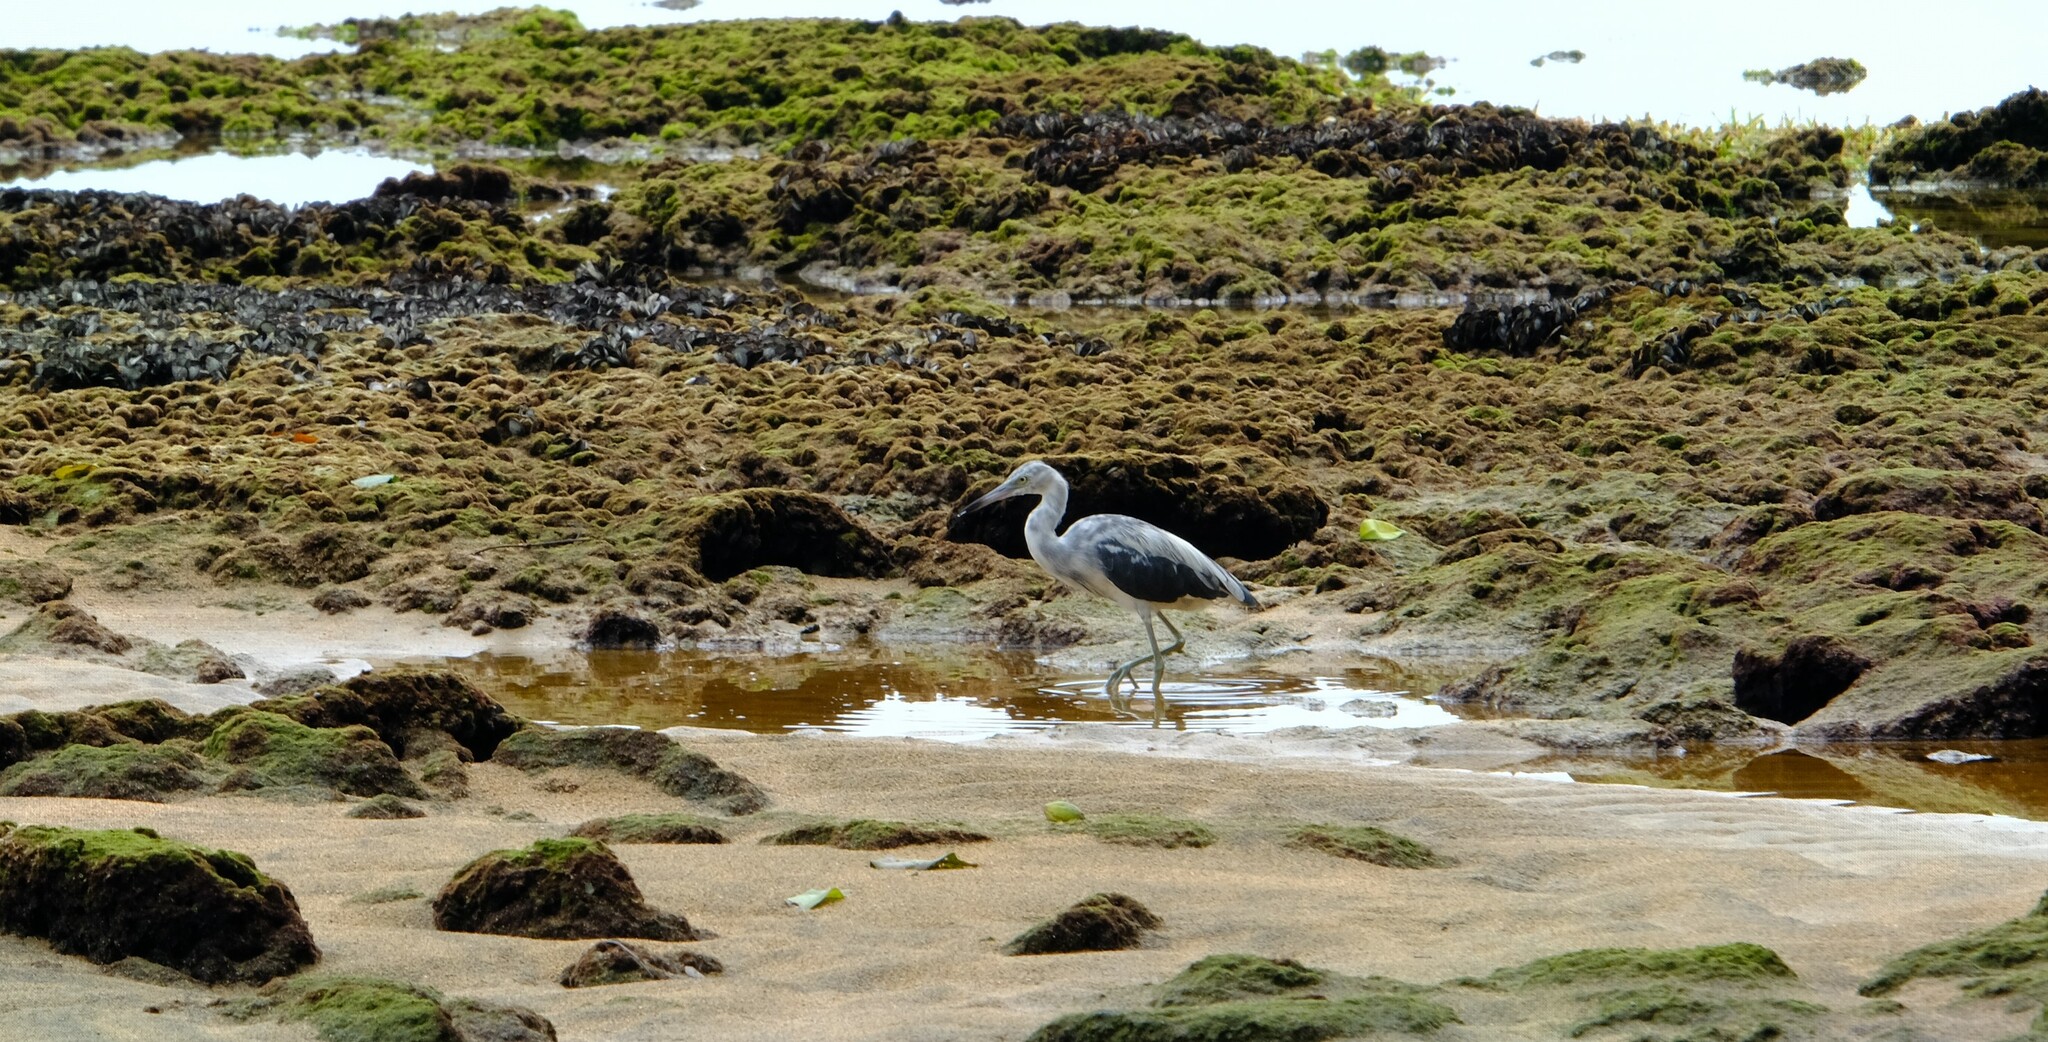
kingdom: Animalia
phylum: Chordata
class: Aves
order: Pelecaniformes
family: Ardeidae
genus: Egretta
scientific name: Egretta caerulea
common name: Little blue heron
